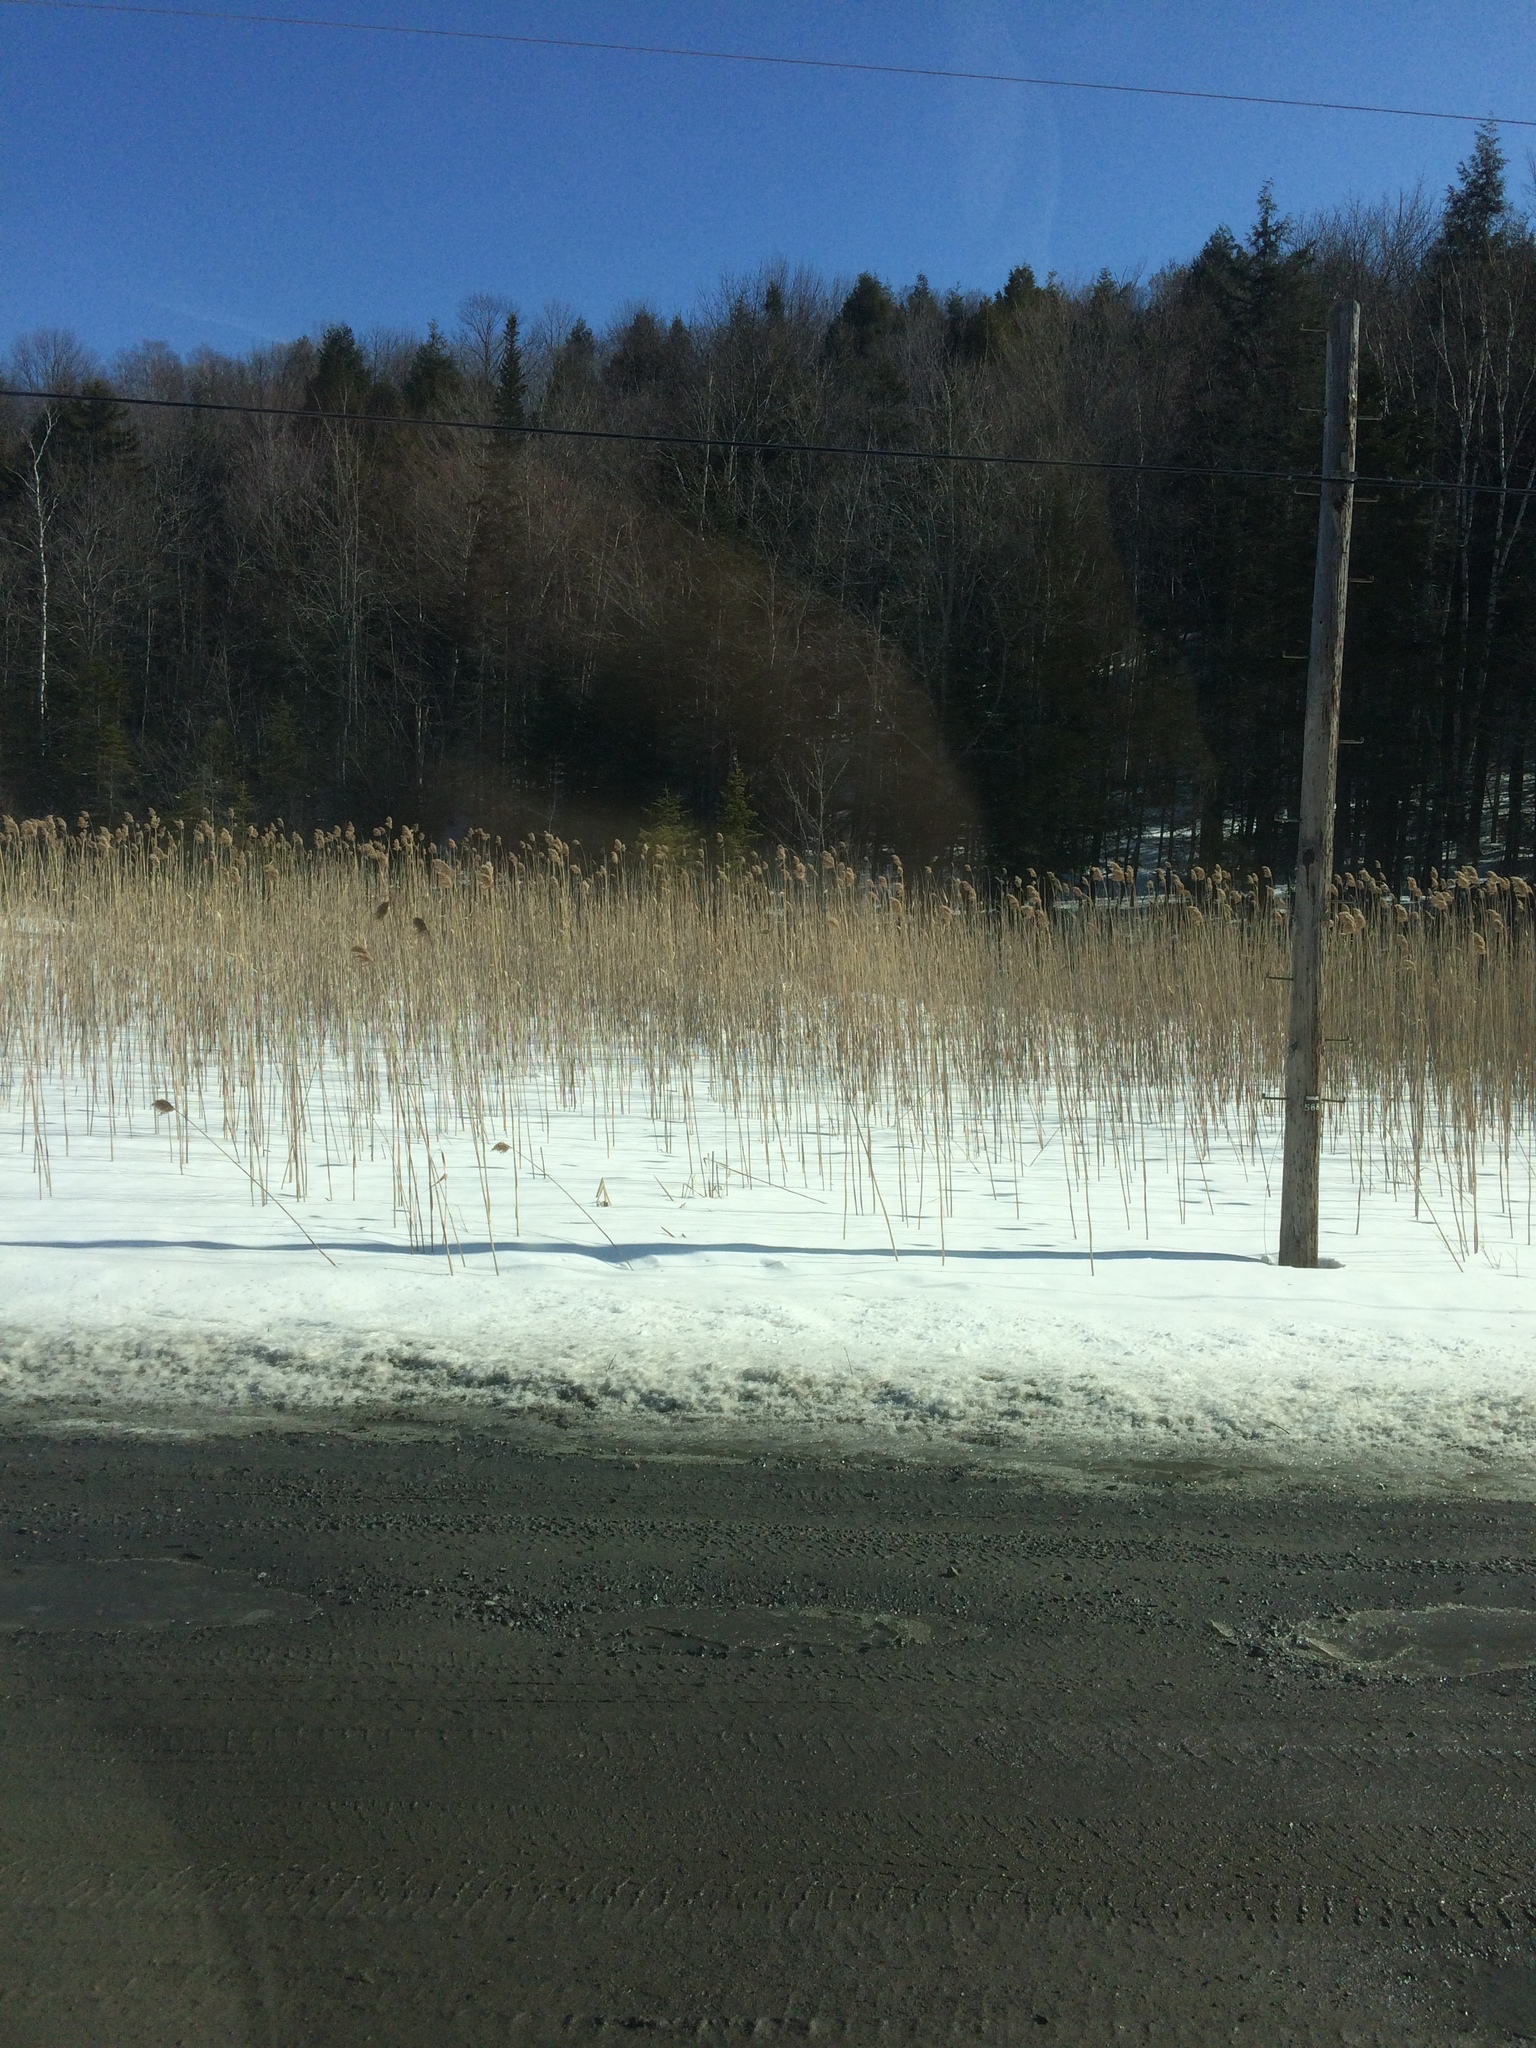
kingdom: Plantae
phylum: Tracheophyta
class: Liliopsida
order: Poales
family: Poaceae
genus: Phragmites
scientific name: Phragmites australis
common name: Common reed
